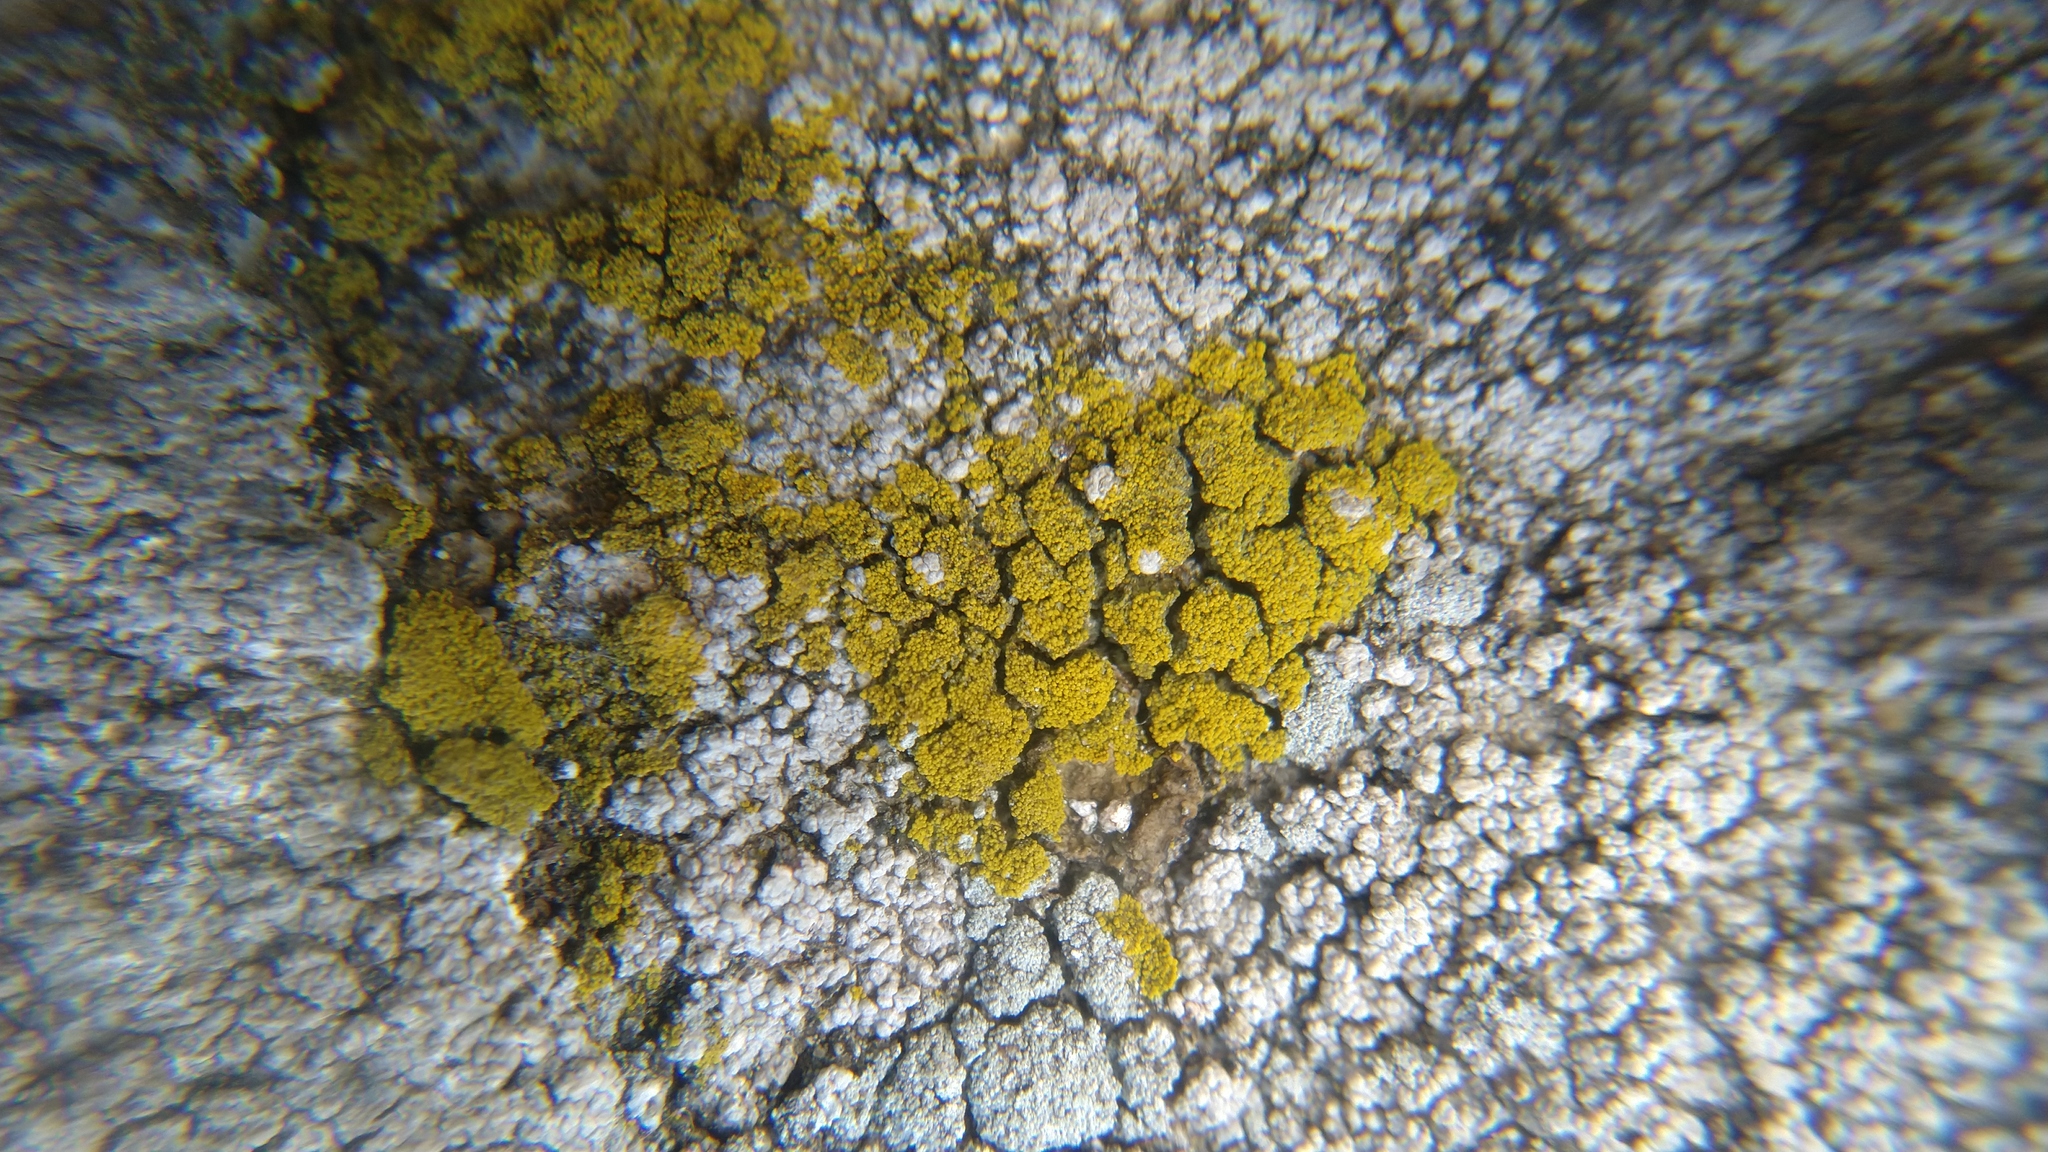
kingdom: Fungi
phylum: Ascomycota
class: Candelariomycetes
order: Candelariales
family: Candelariaceae
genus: Candelariella
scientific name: Candelariella coralliza
